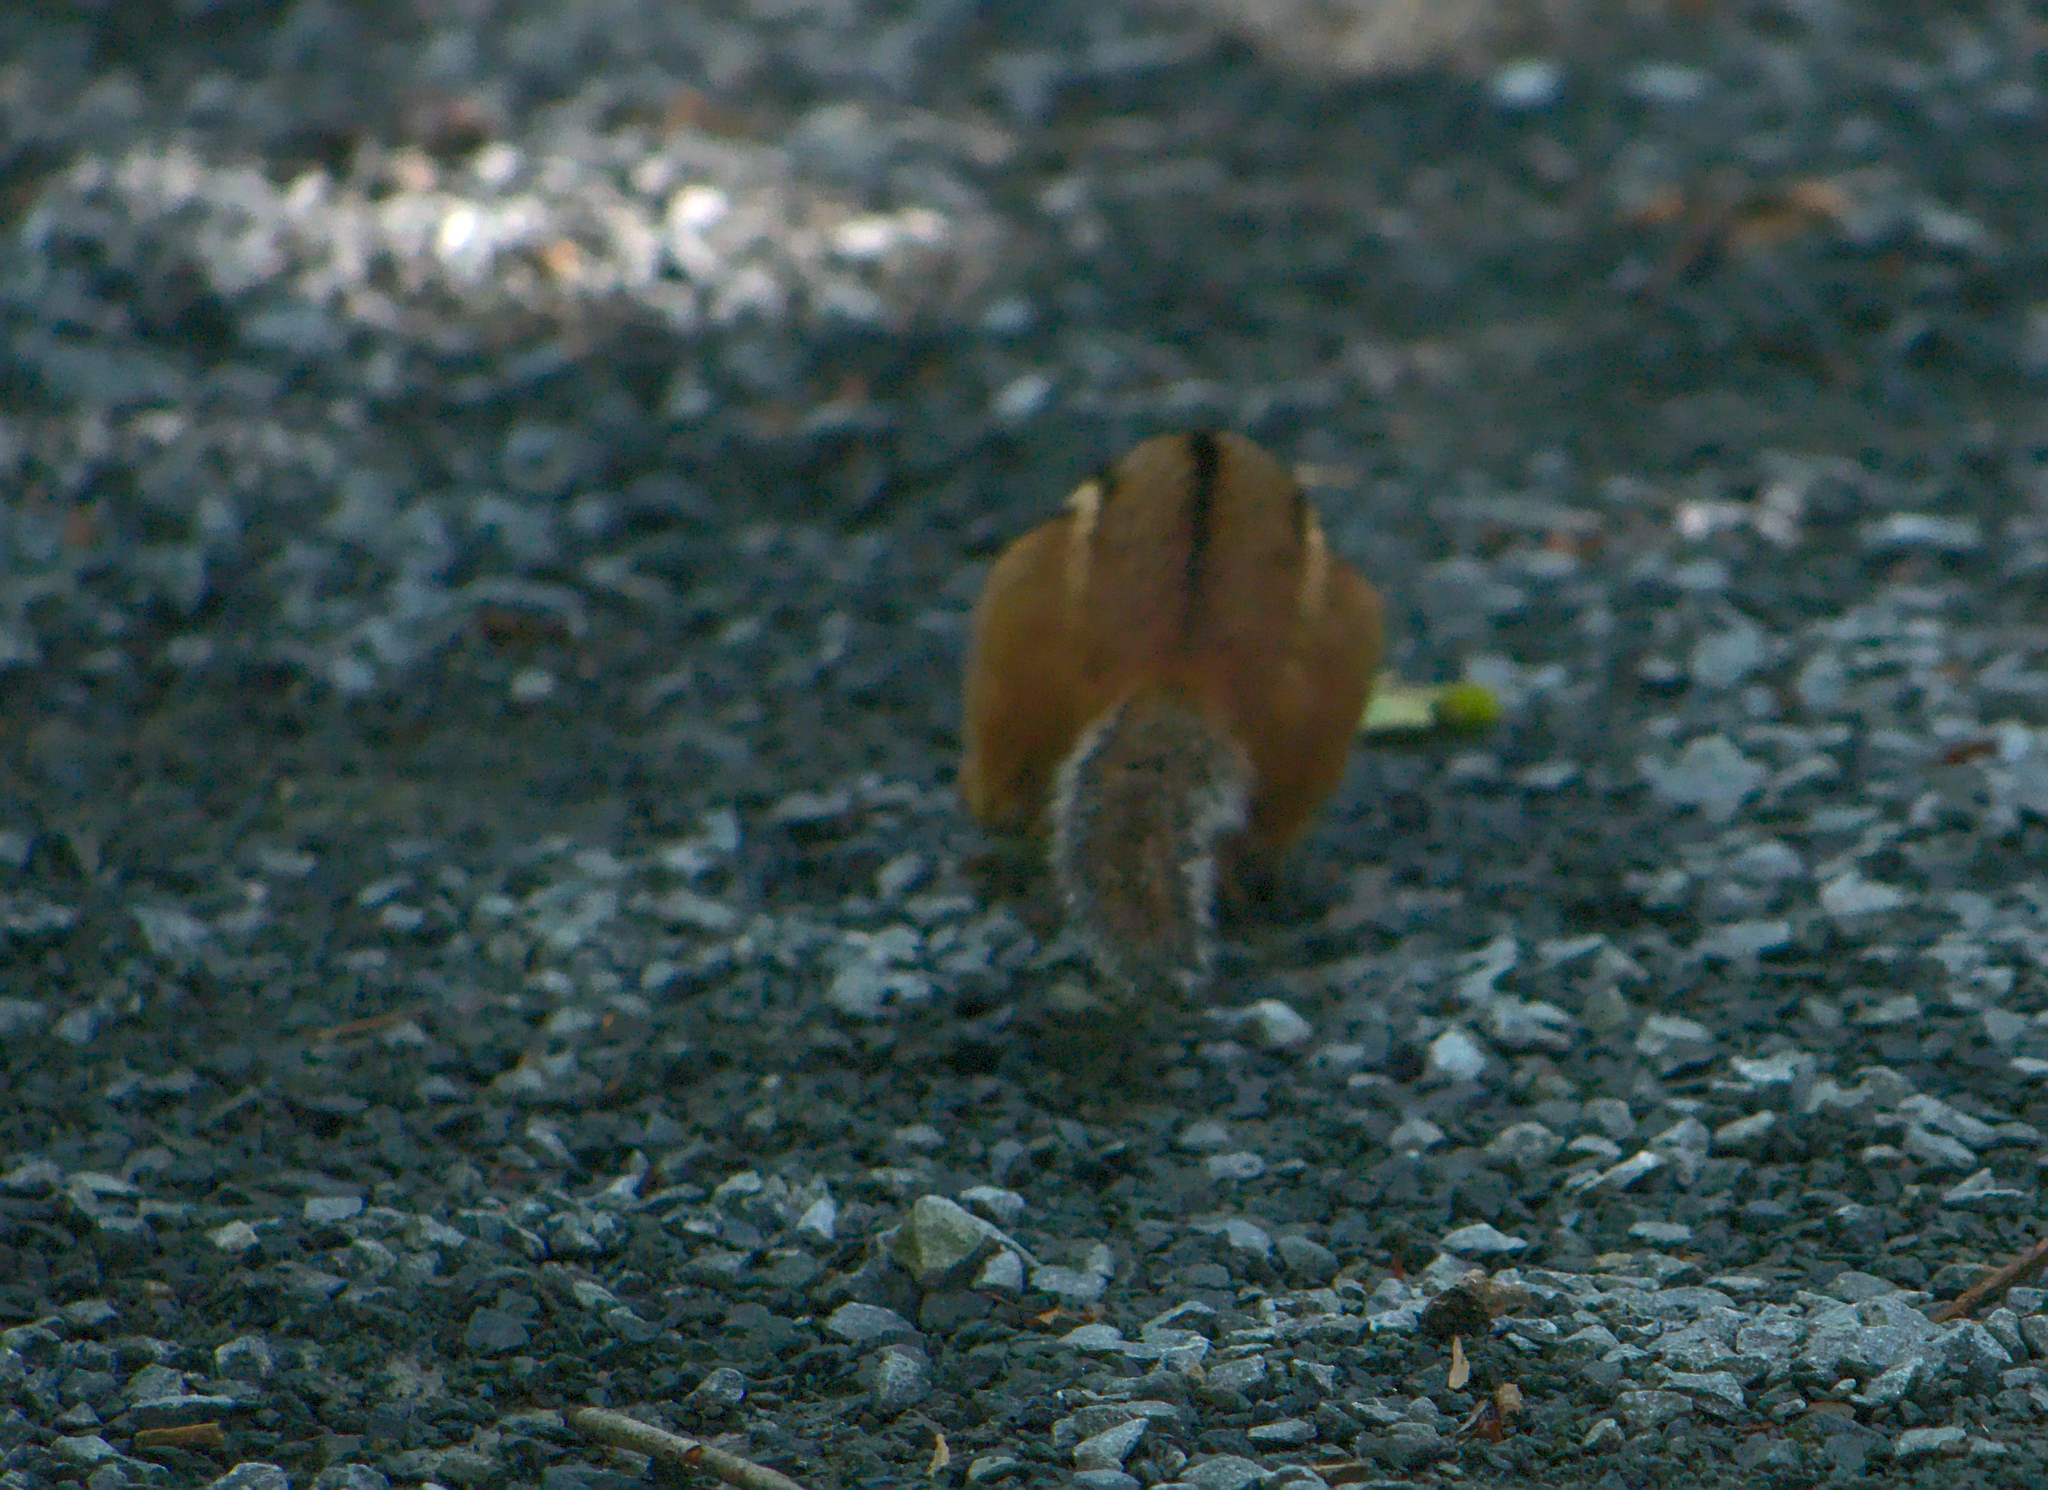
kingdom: Animalia
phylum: Chordata
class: Mammalia
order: Rodentia
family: Sciuridae
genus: Tamias
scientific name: Tamias striatus
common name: Eastern chipmunk
